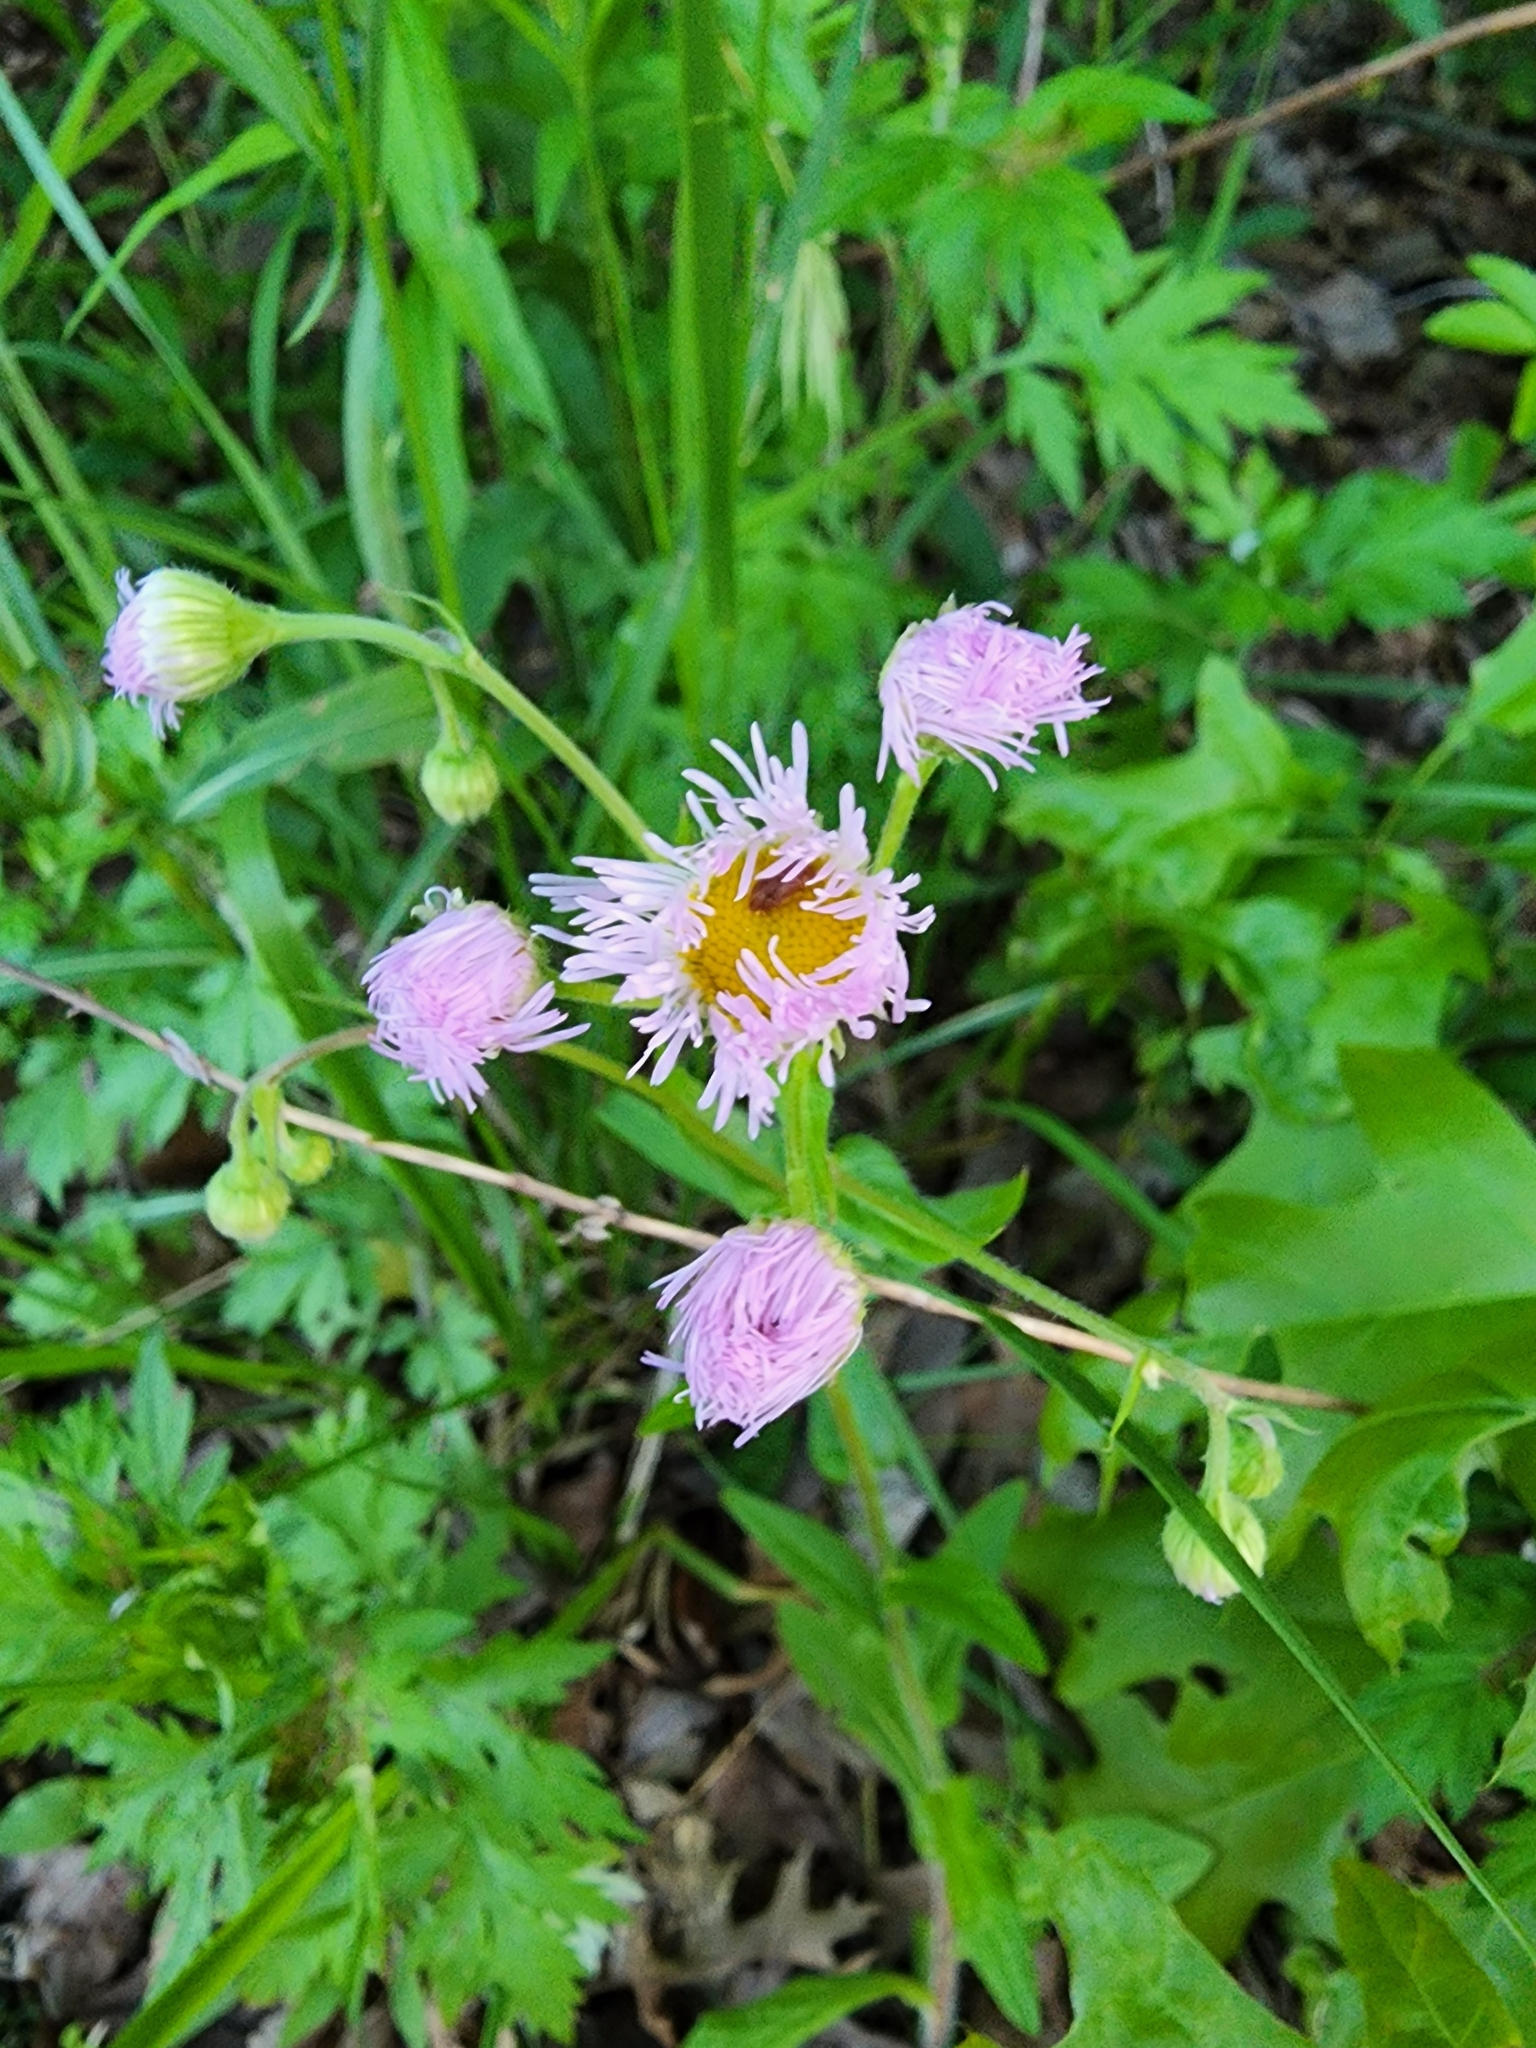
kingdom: Plantae
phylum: Tracheophyta
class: Magnoliopsida
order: Asterales
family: Asteraceae
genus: Erigeron
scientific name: Erigeron philadelphicus
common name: Robin's-plantain
